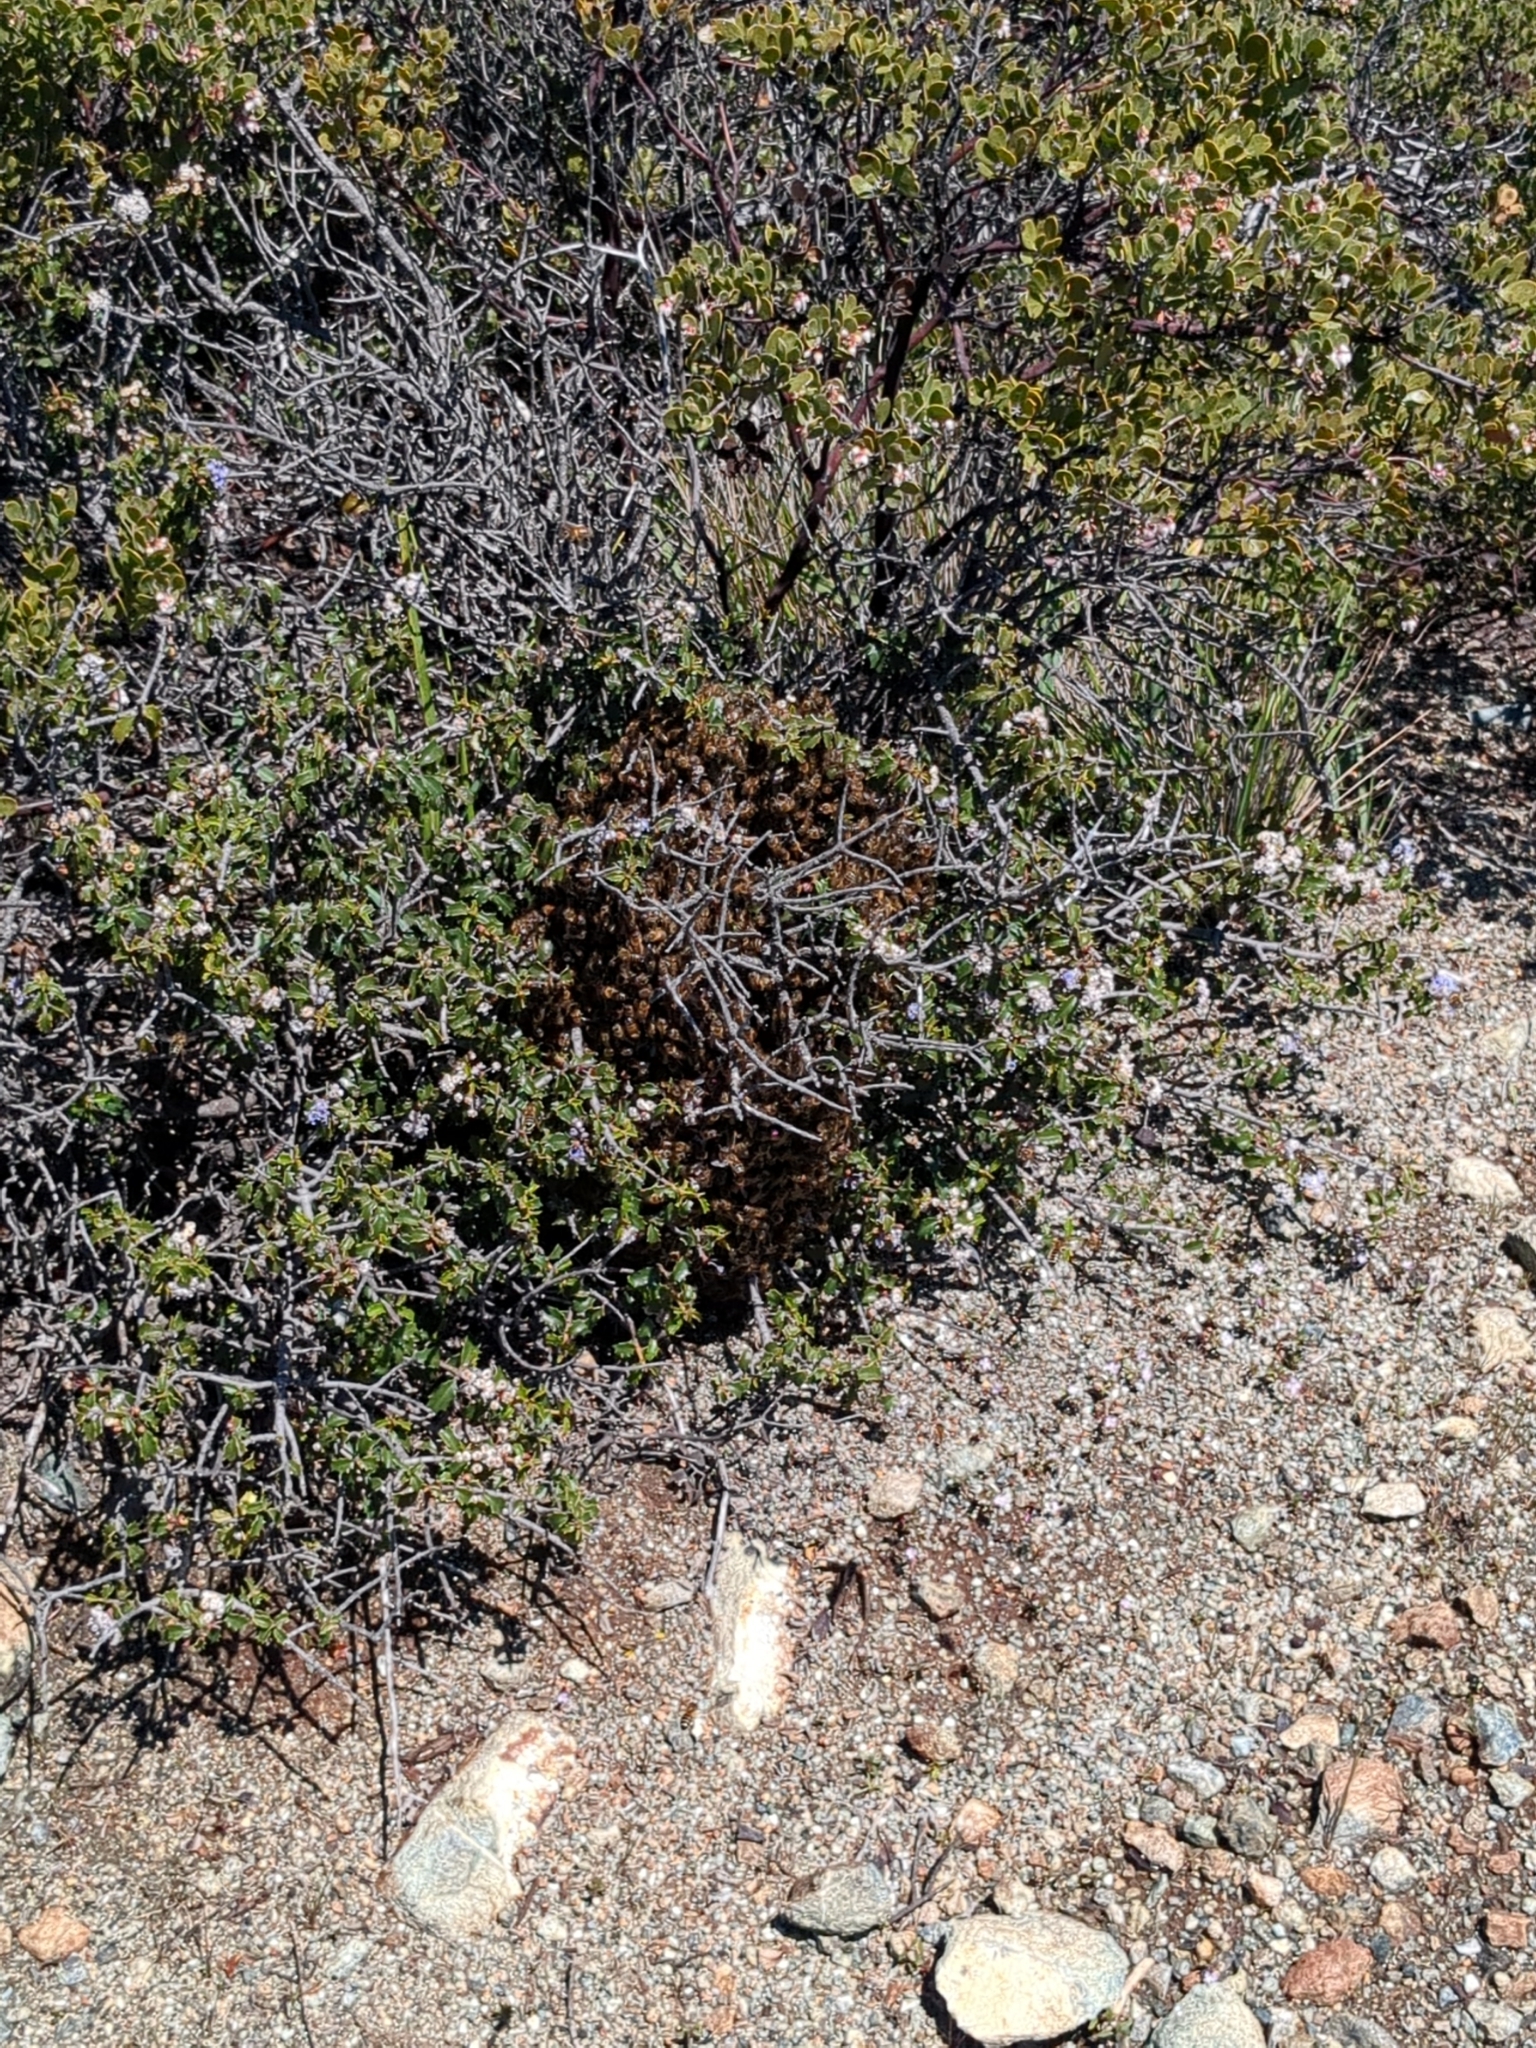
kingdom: Animalia
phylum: Arthropoda
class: Insecta
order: Hymenoptera
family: Apidae
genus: Apis
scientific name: Apis mellifera
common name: Honey bee
